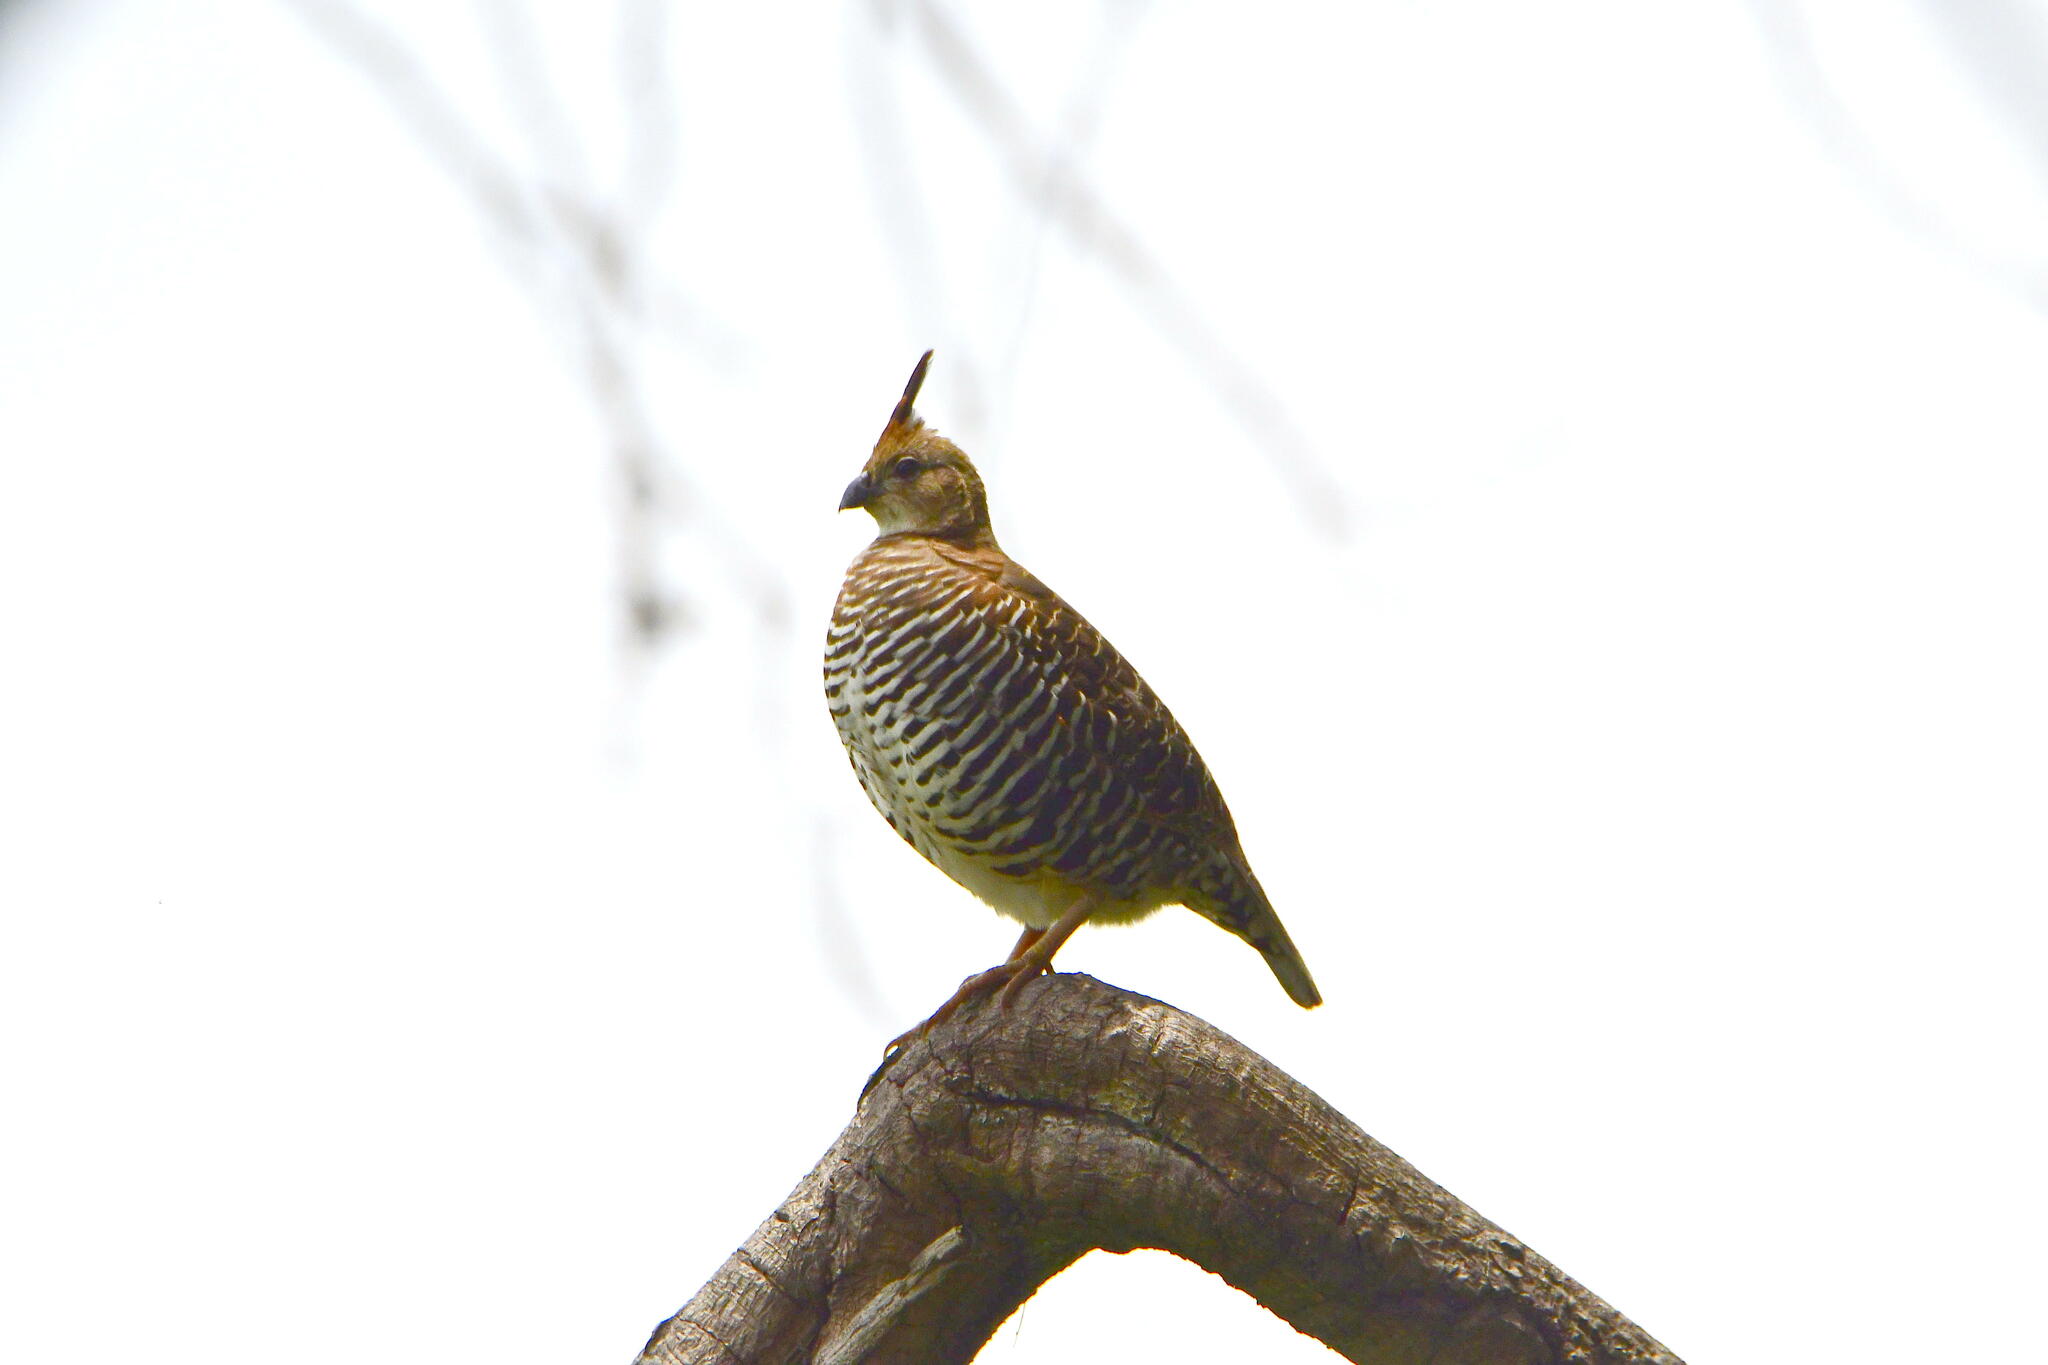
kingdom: Animalia
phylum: Chordata
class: Aves
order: Galliformes
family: Odontophoridae
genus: Philortyx
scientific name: Philortyx fasciatus
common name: Banded quail
